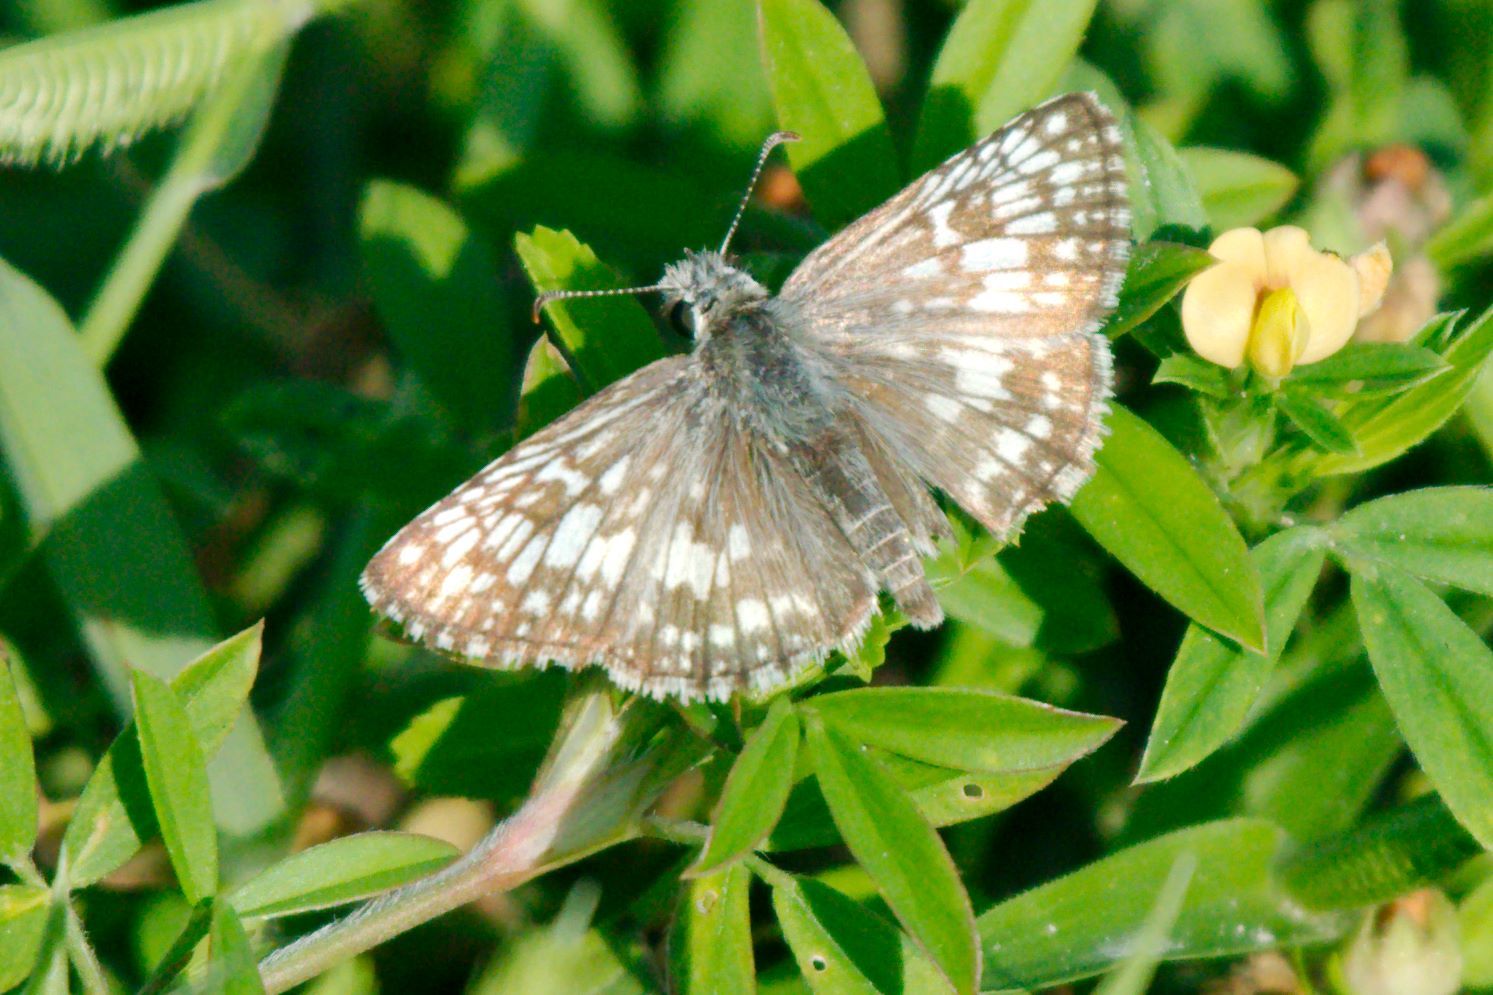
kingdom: Animalia
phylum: Arthropoda
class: Insecta
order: Lepidoptera
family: Hesperiidae
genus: Burnsius
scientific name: Burnsius albezens
